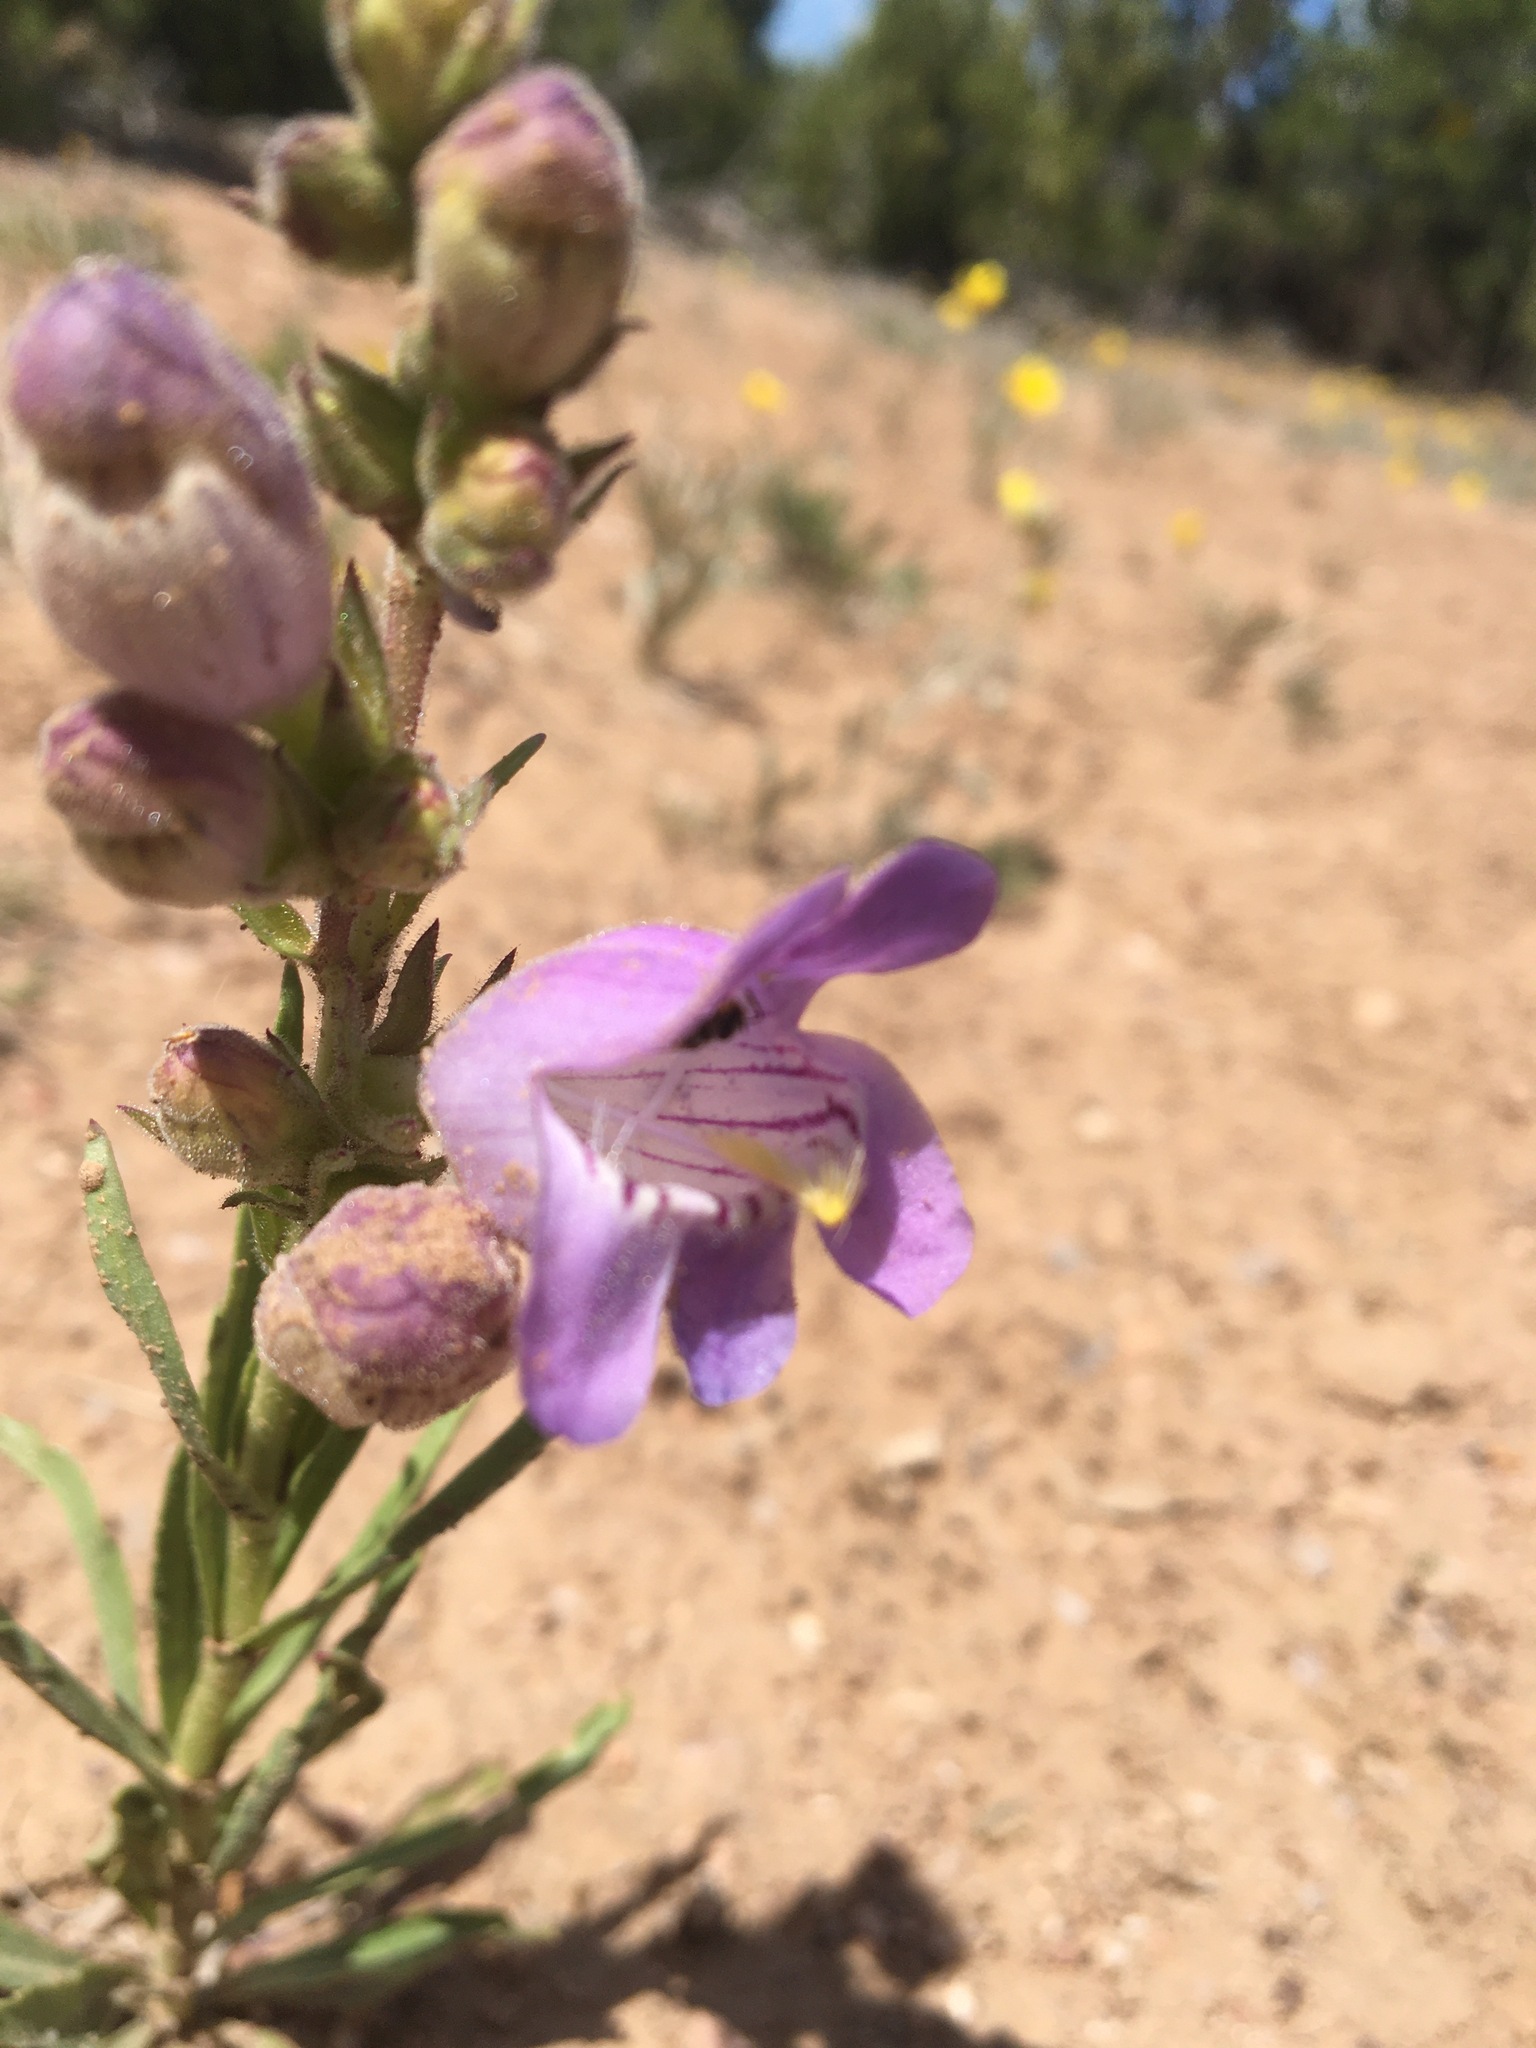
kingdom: Plantae
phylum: Tracheophyta
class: Magnoliopsida
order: Lamiales
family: Plantaginaceae
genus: Penstemon
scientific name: Penstemon jamesii
